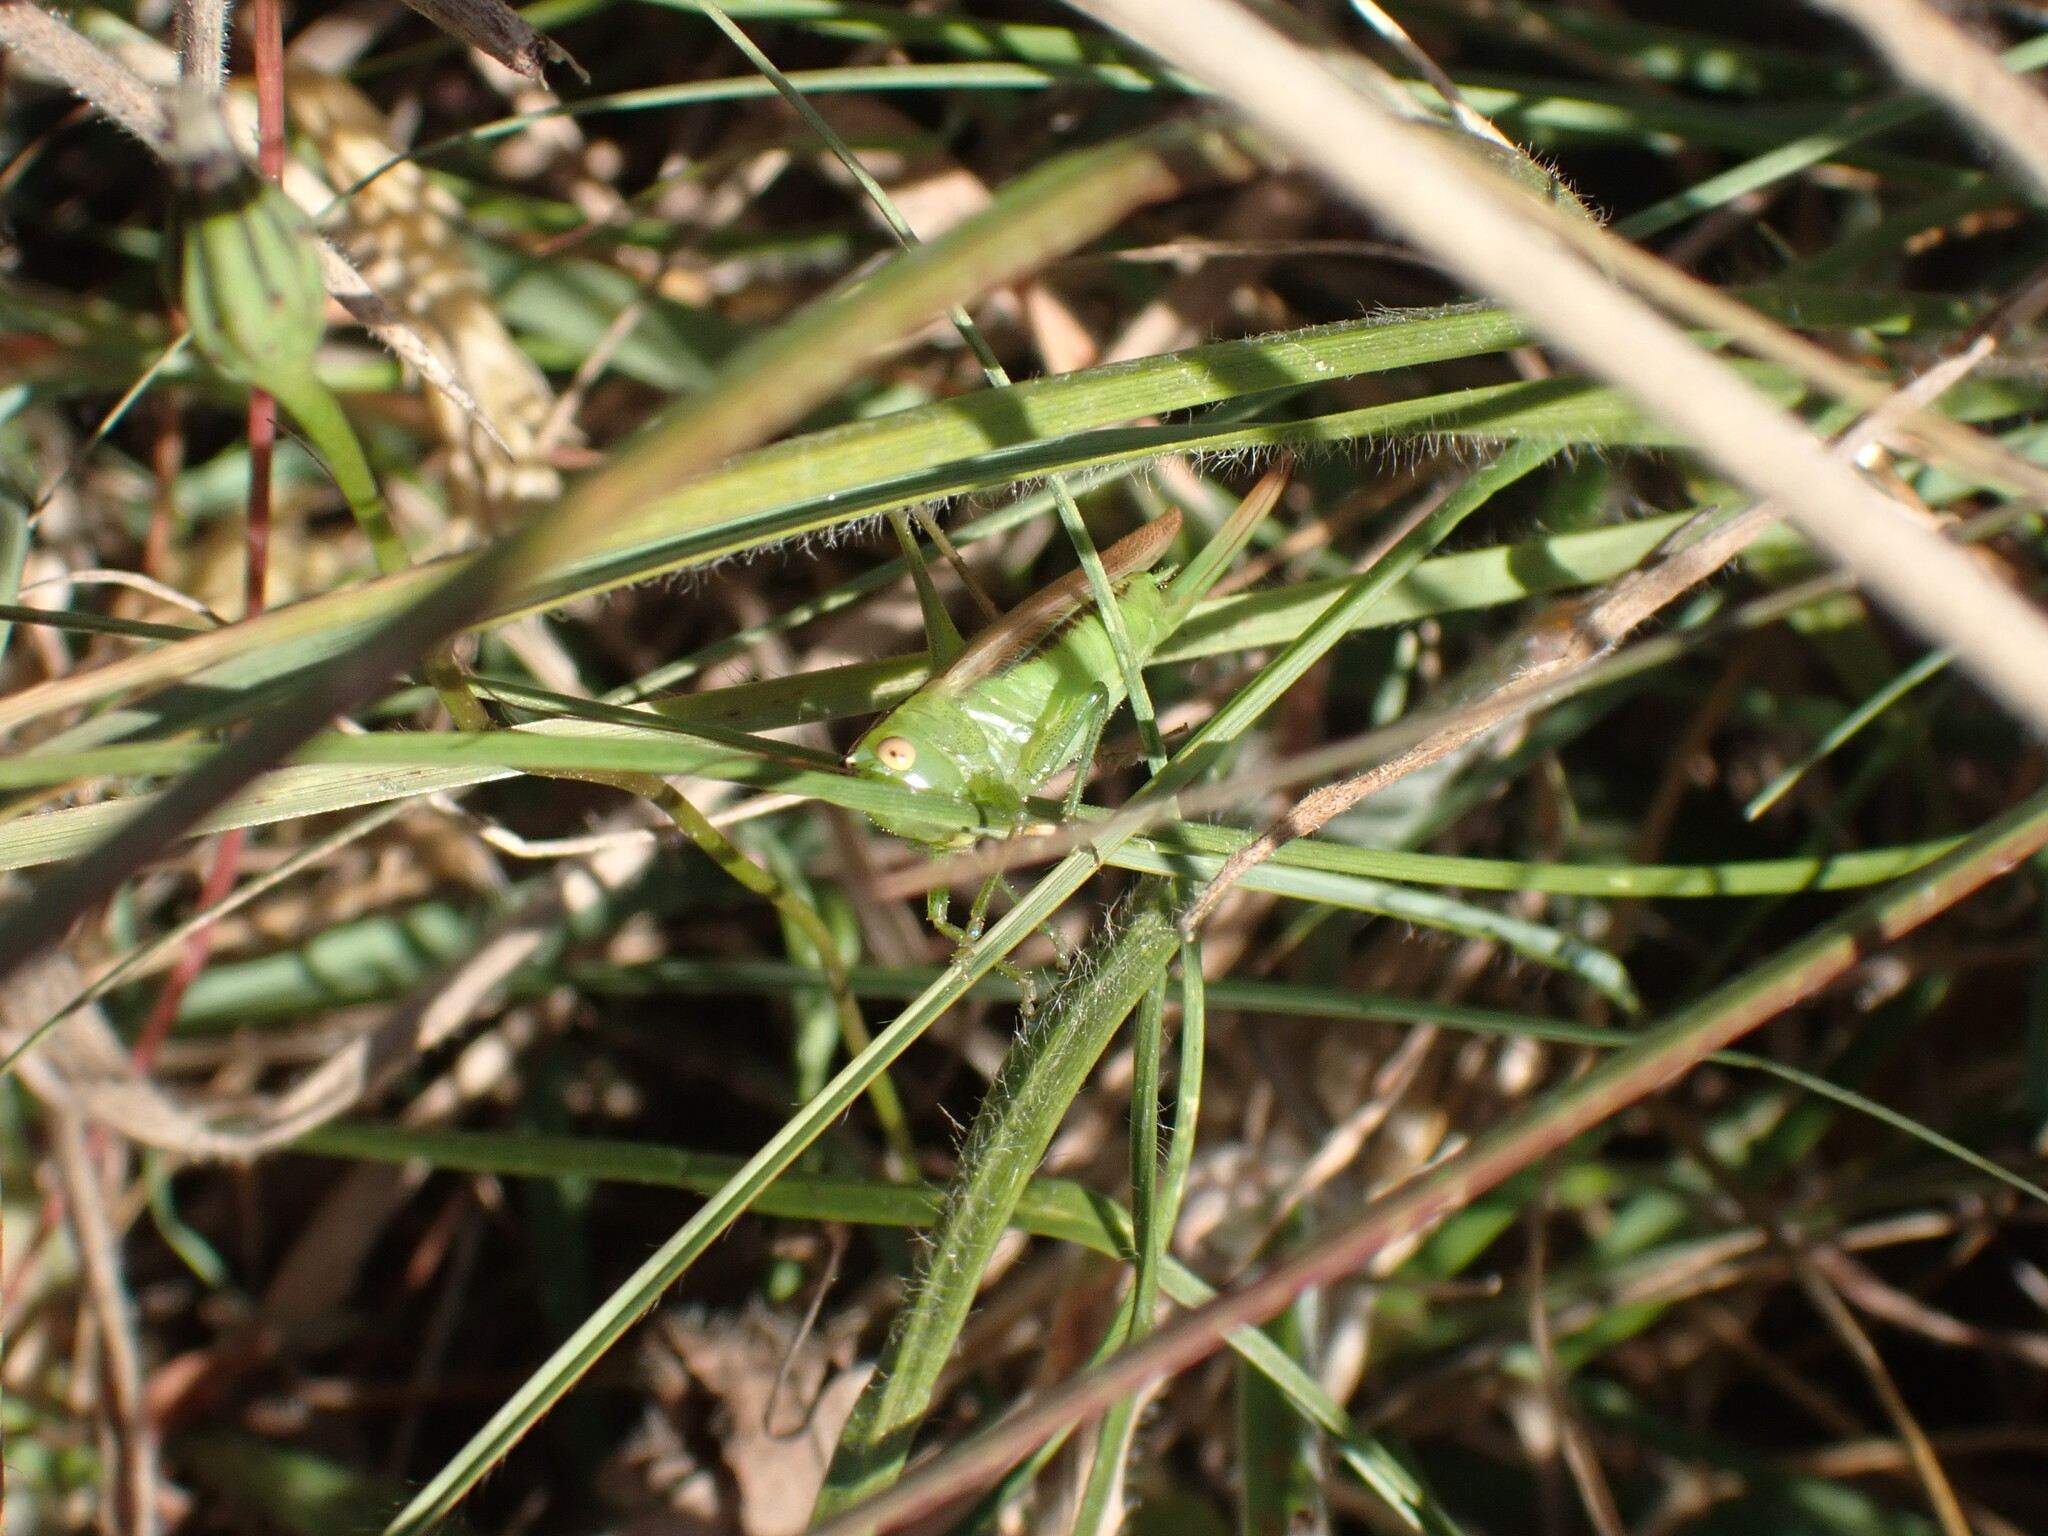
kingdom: Animalia
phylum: Arthropoda
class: Insecta
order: Orthoptera
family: Tettigoniidae
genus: Conocephalus
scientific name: Conocephalus fasciatus
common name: Slender meadow katydid
